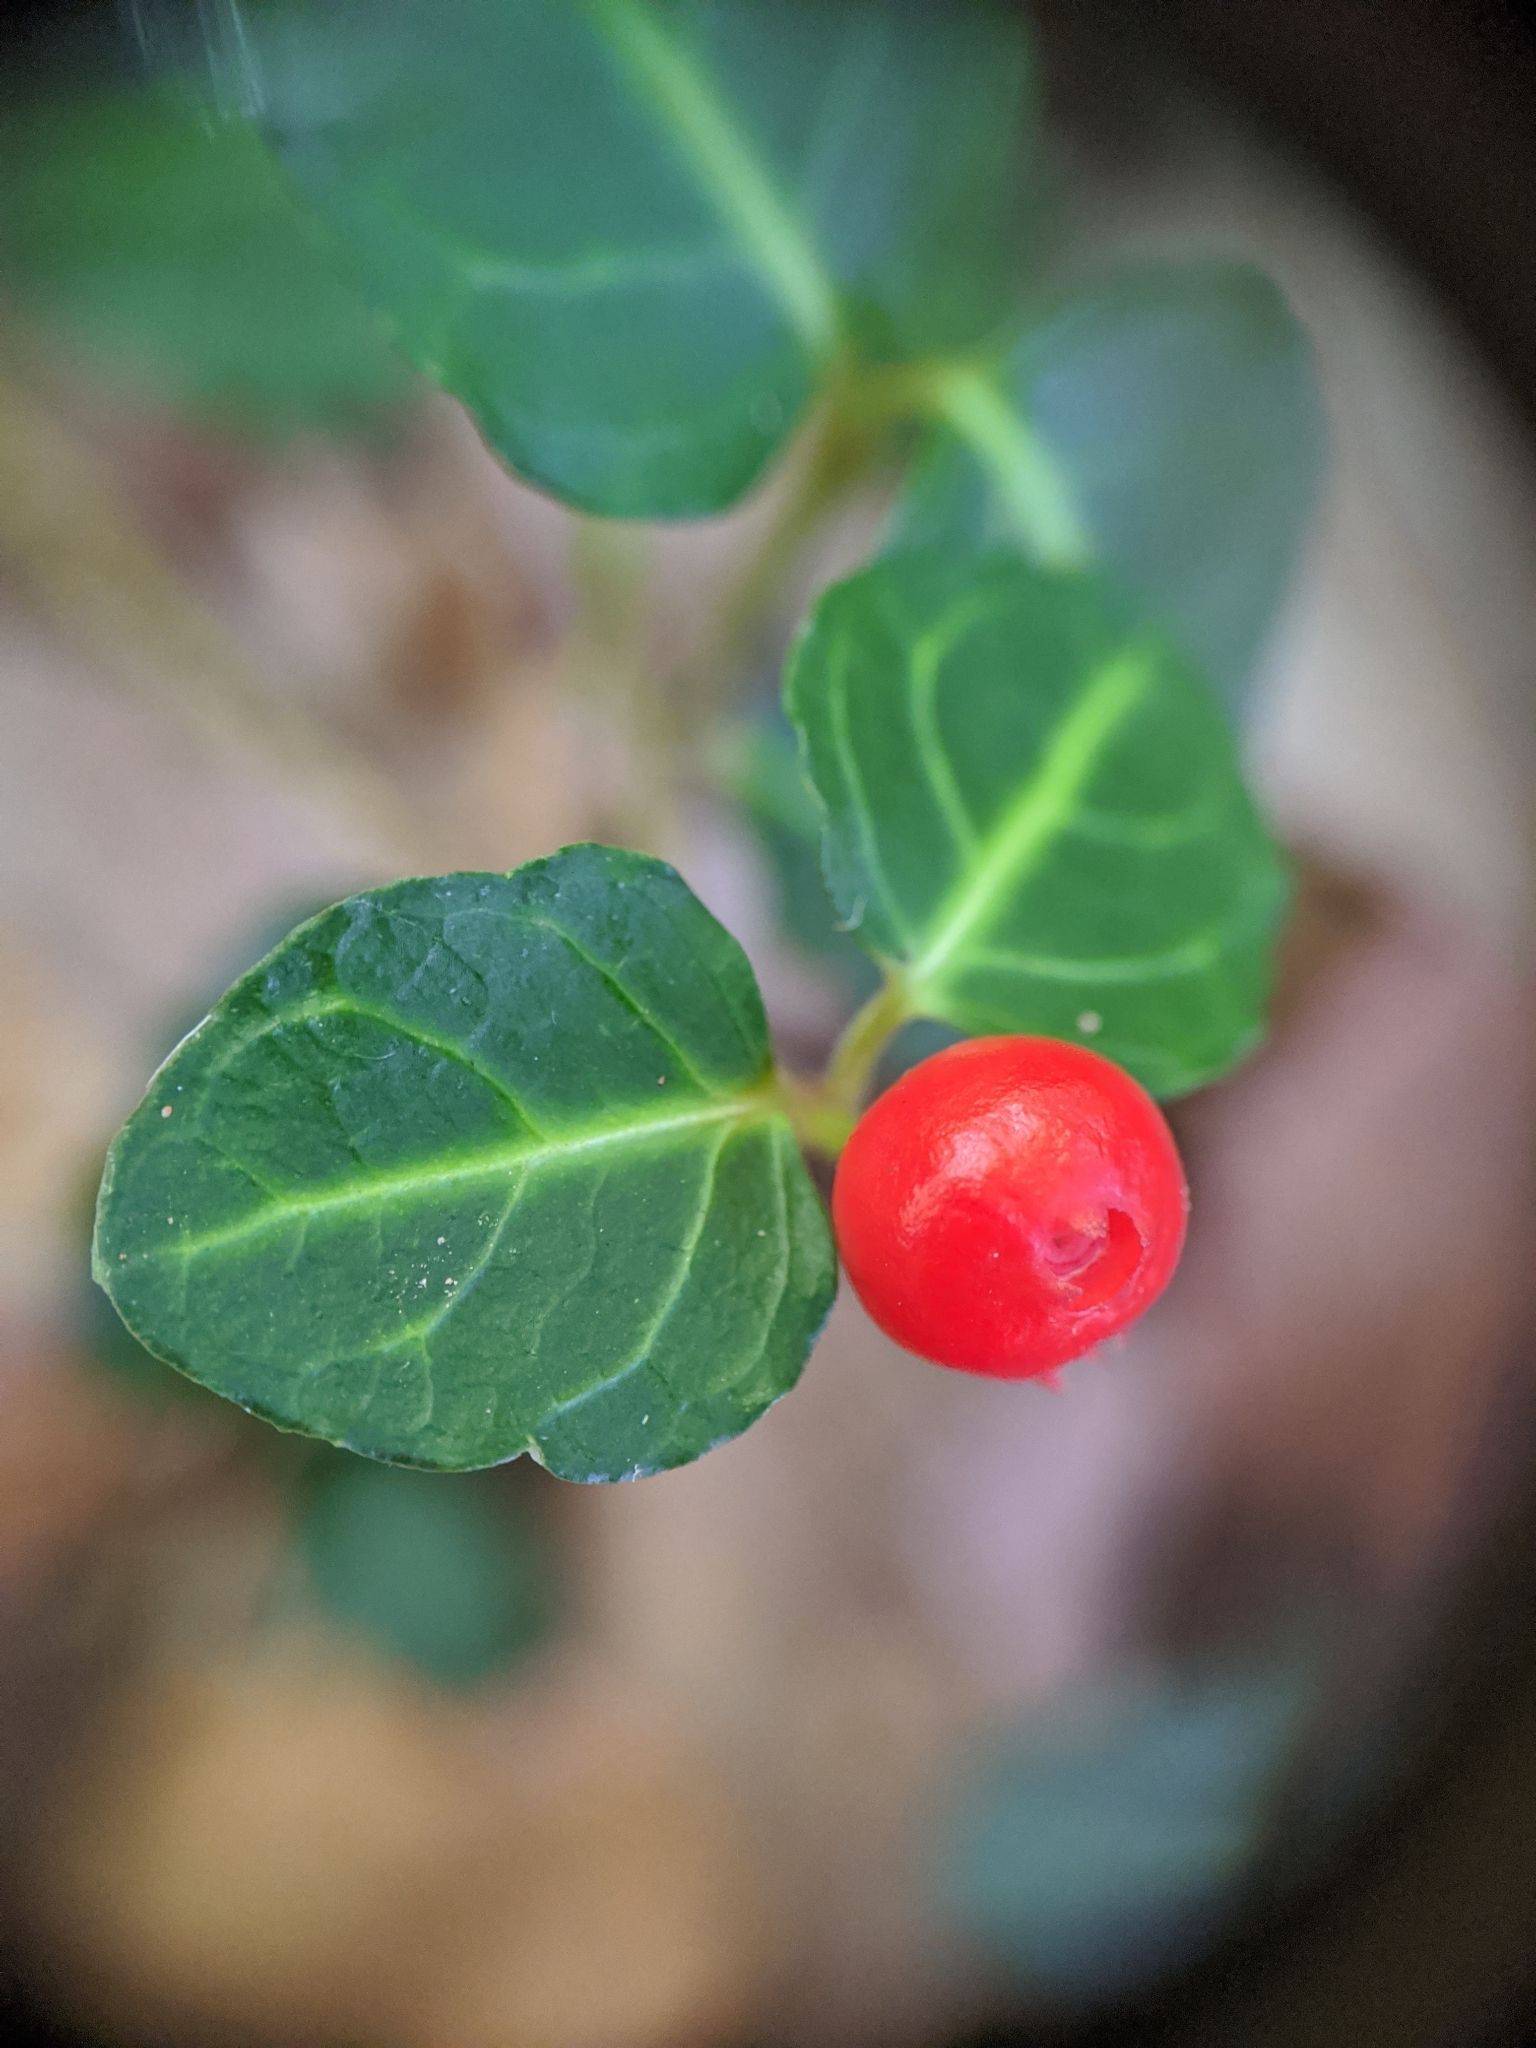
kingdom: Plantae
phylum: Tracheophyta
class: Magnoliopsida
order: Gentianales
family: Rubiaceae
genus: Mitchella
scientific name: Mitchella repens
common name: Partridge-berry
